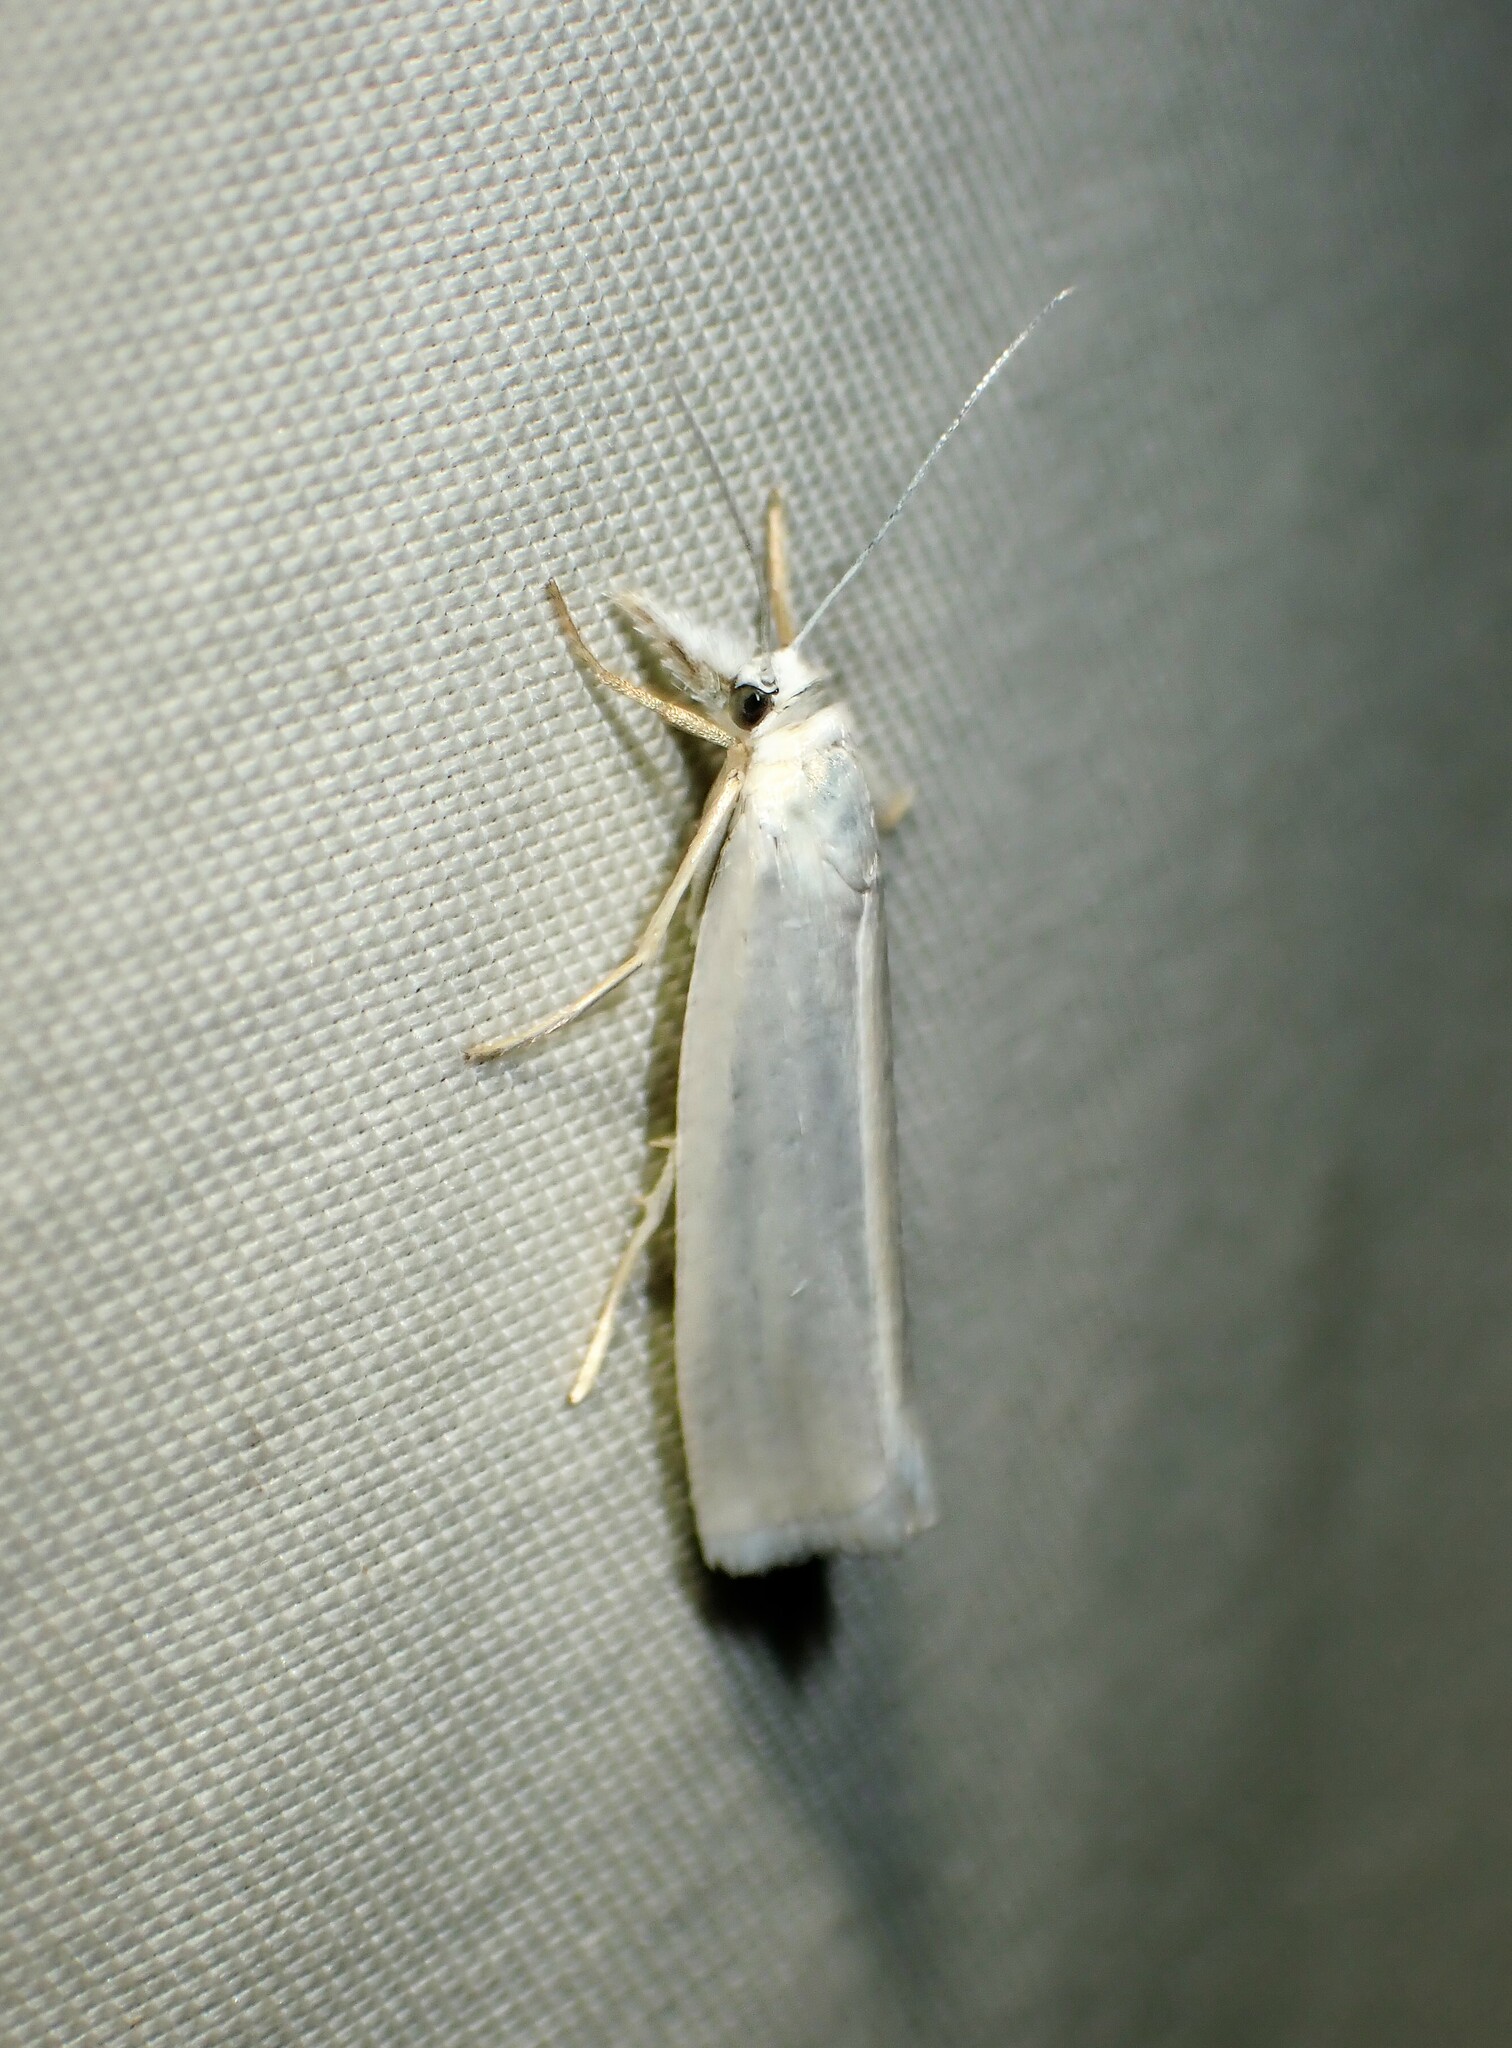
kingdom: Animalia
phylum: Arthropoda
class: Insecta
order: Lepidoptera
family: Crambidae
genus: Crambus
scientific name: Crambus perlellus
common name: Yellow satin veneer
